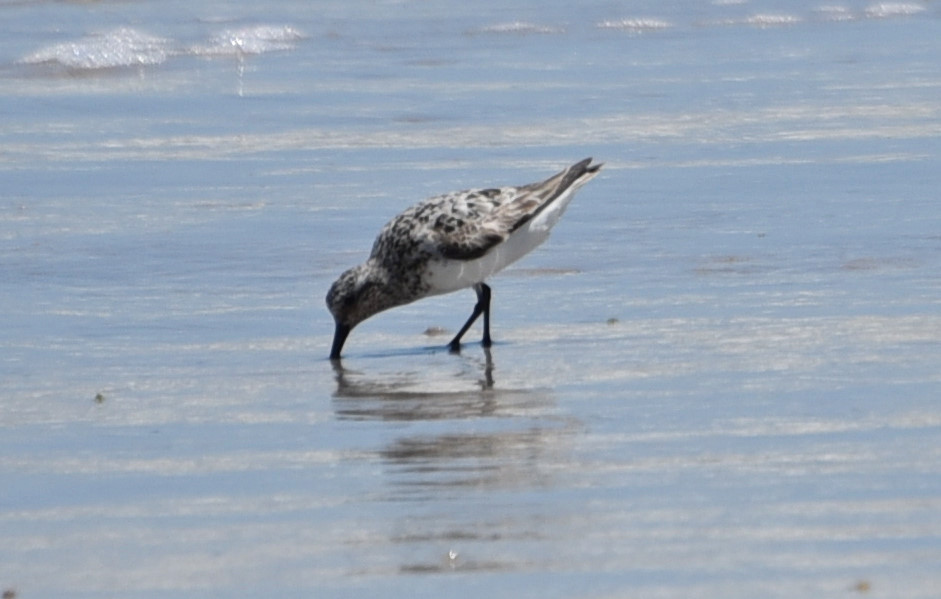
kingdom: Animalia
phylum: Chordata
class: Aves
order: Charadriiformes
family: Scolopacidae
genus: Calidris
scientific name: Calidris alba
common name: Sanderling
